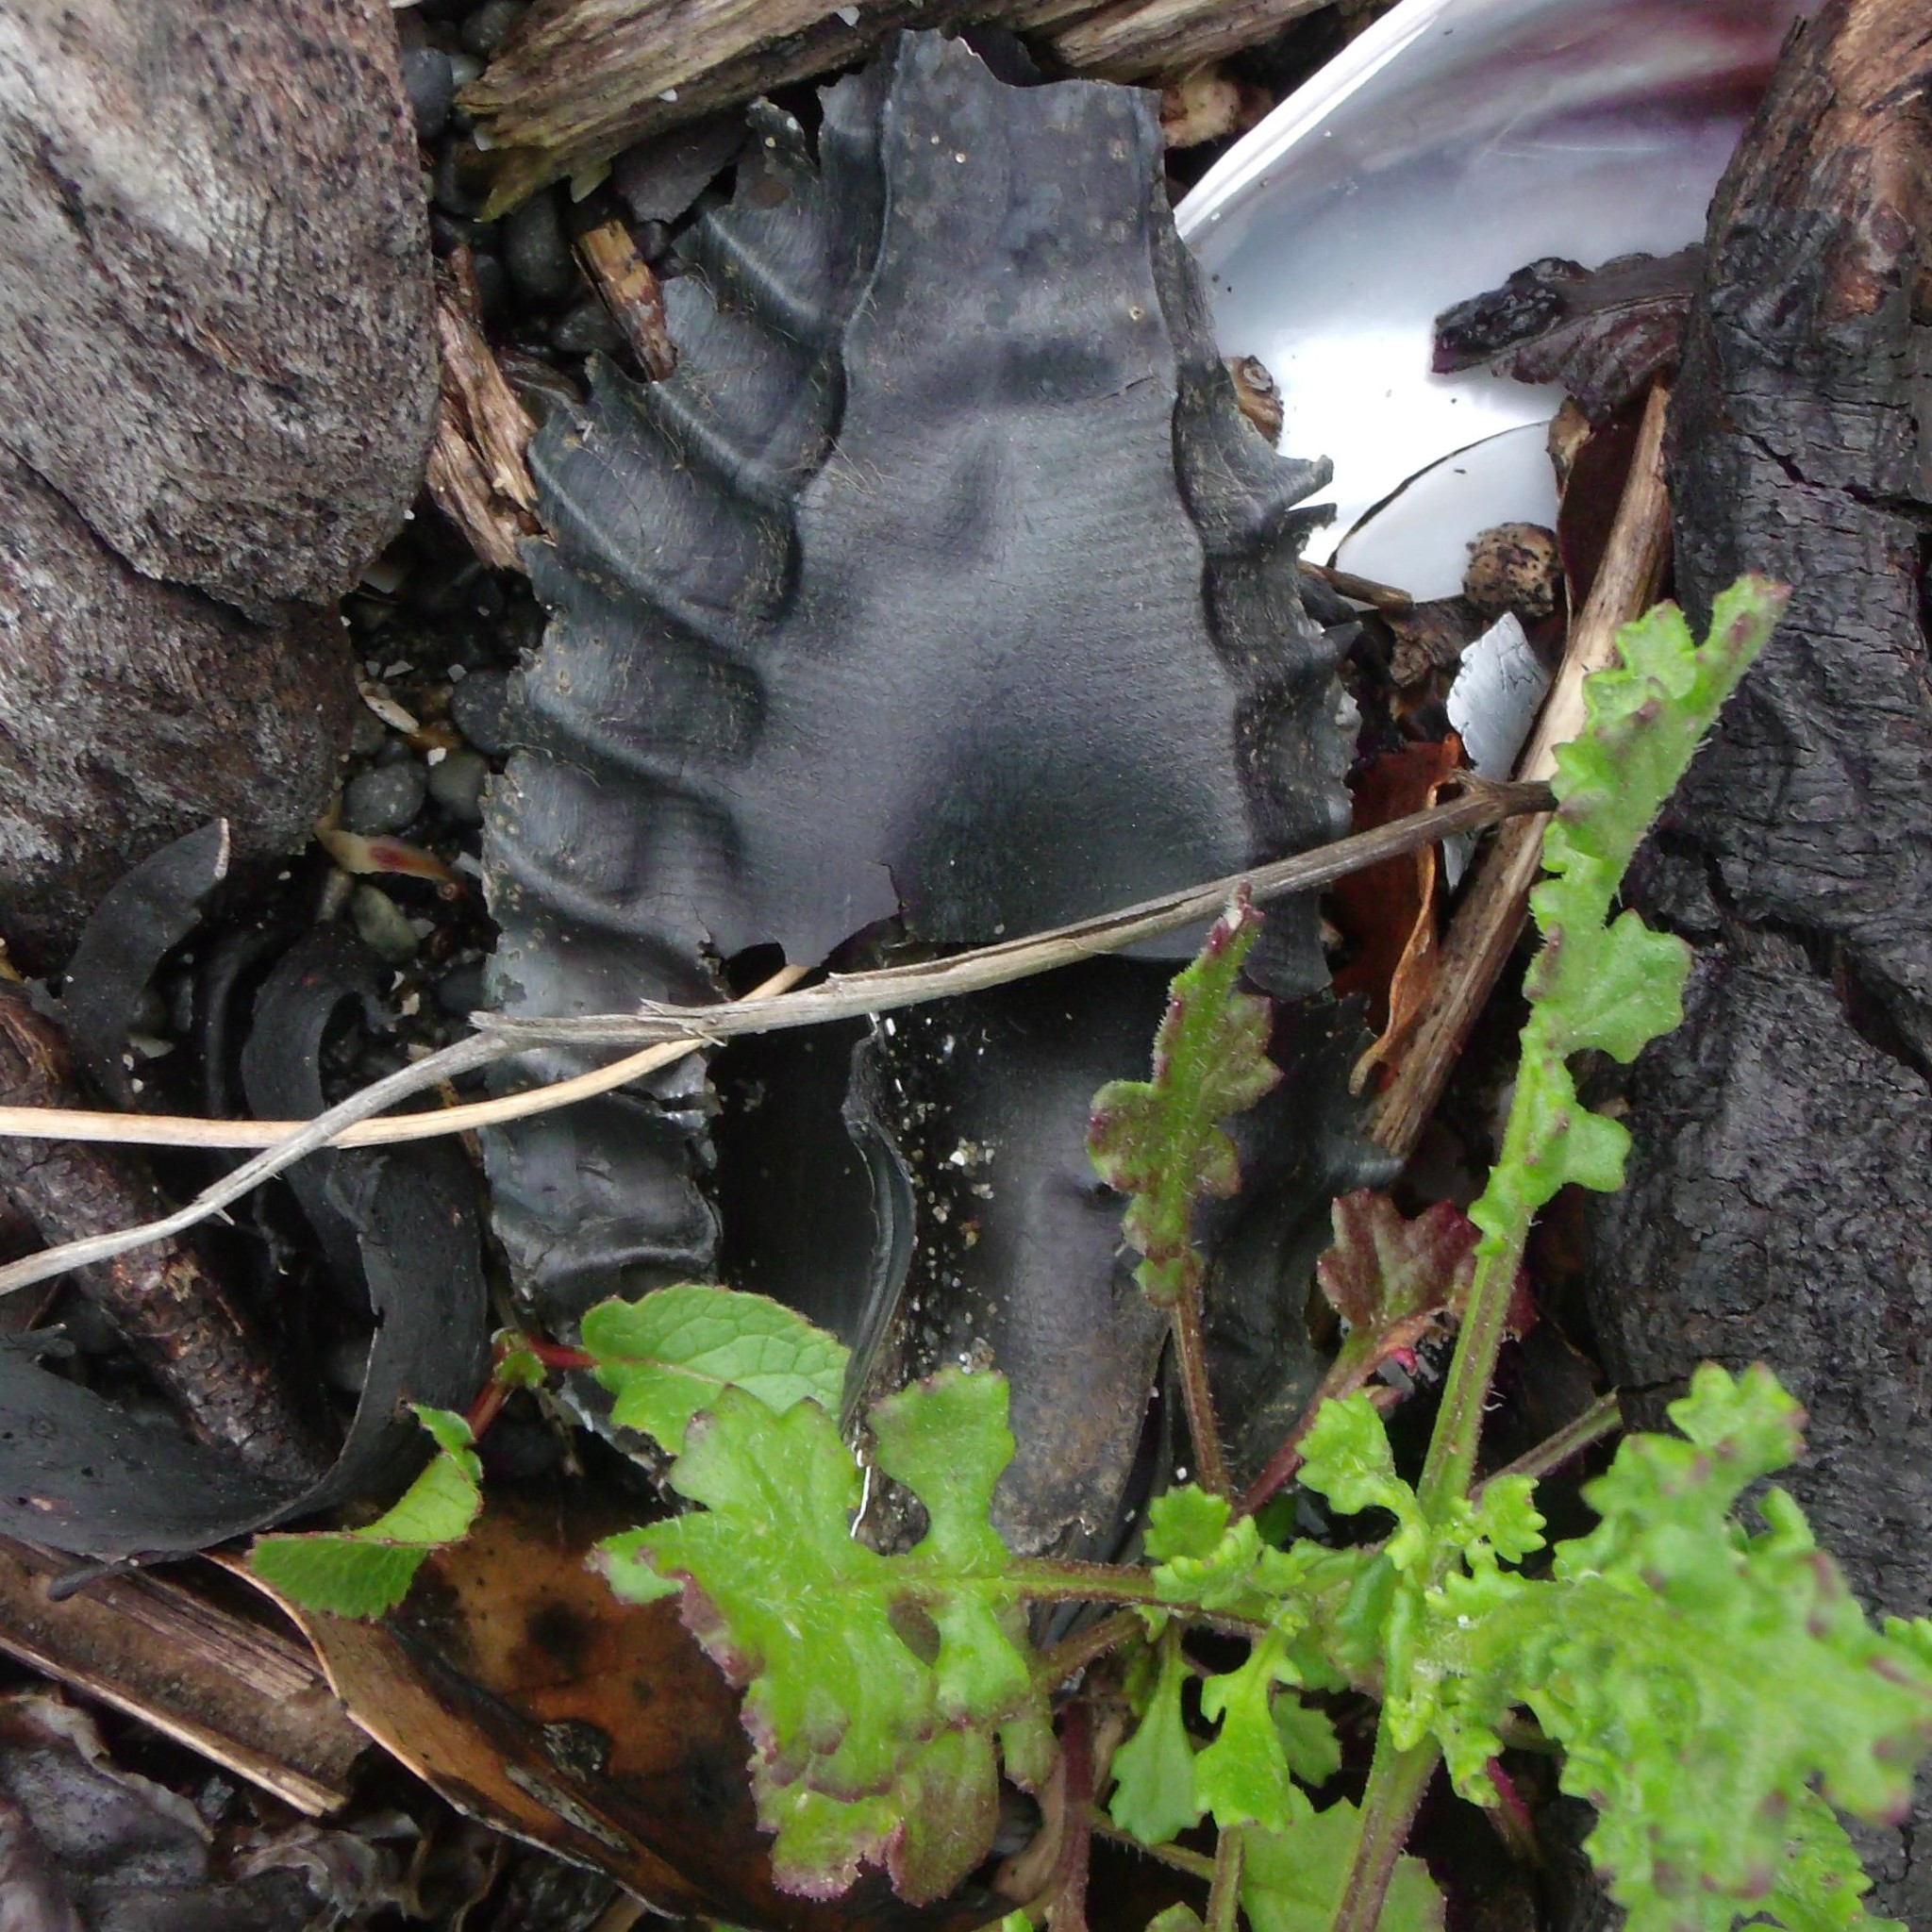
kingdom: Animalia
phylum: Chordata
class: Holocephali
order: Chimaeriformes
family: Callorhinchidae
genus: Callorhinchus
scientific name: Callorhinchus milii
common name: Elephant fish
